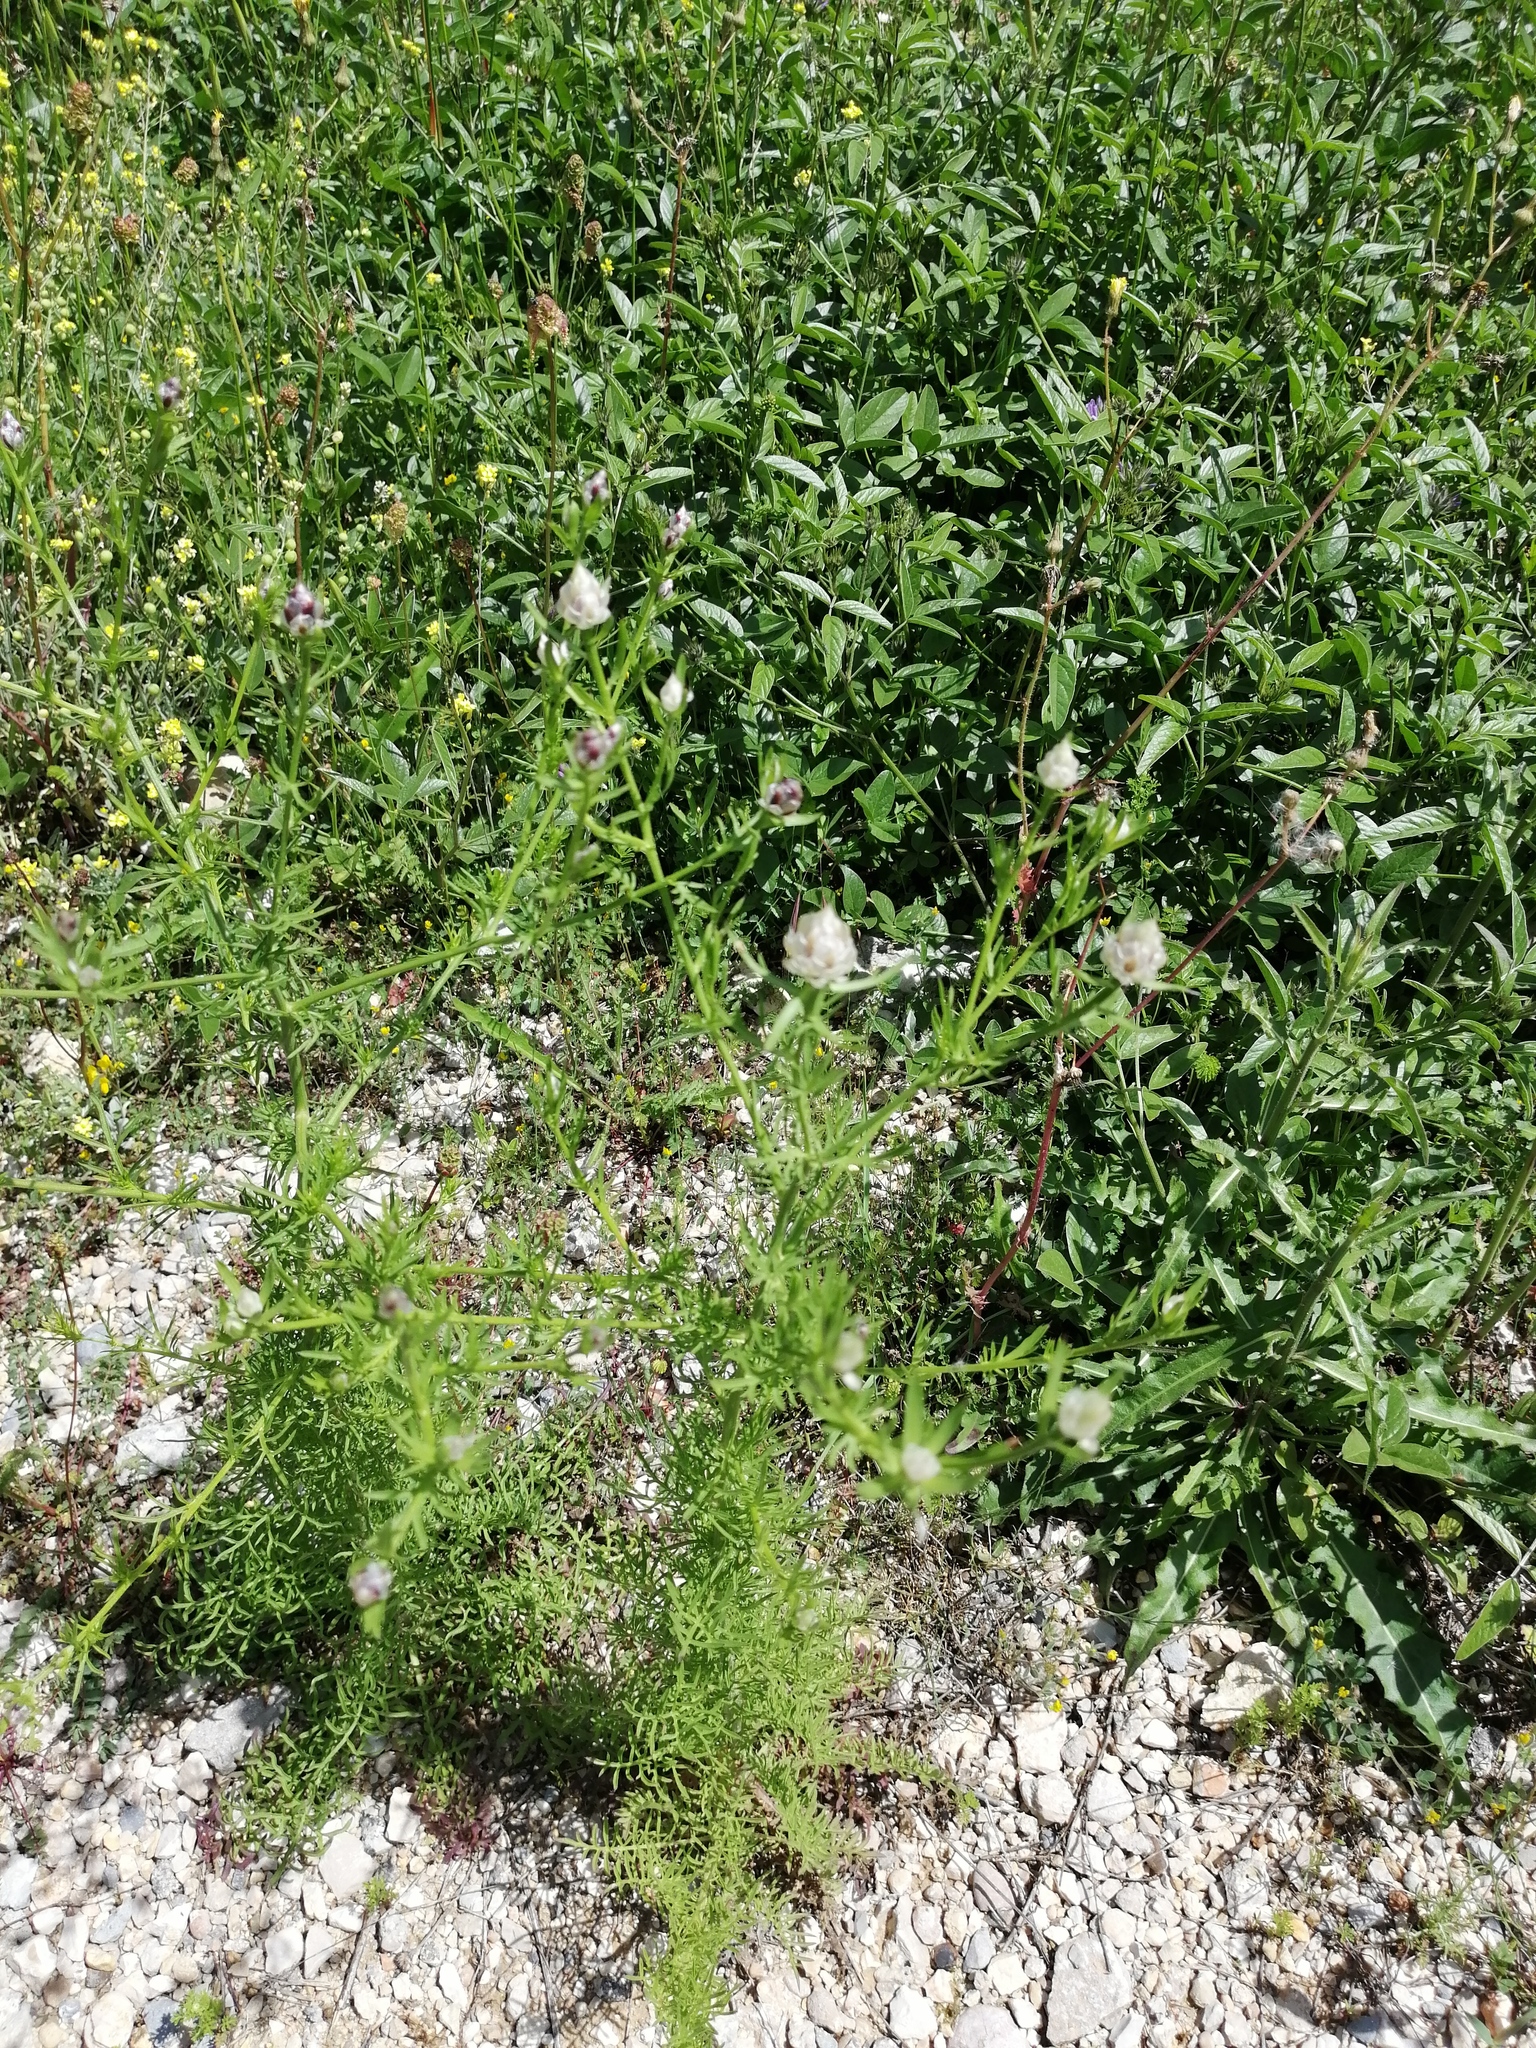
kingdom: Plantae
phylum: Tracheophyta
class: Magnoliopsida
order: Asterales
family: Asteraceae
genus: Centaurea
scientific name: Centaurea deusta
